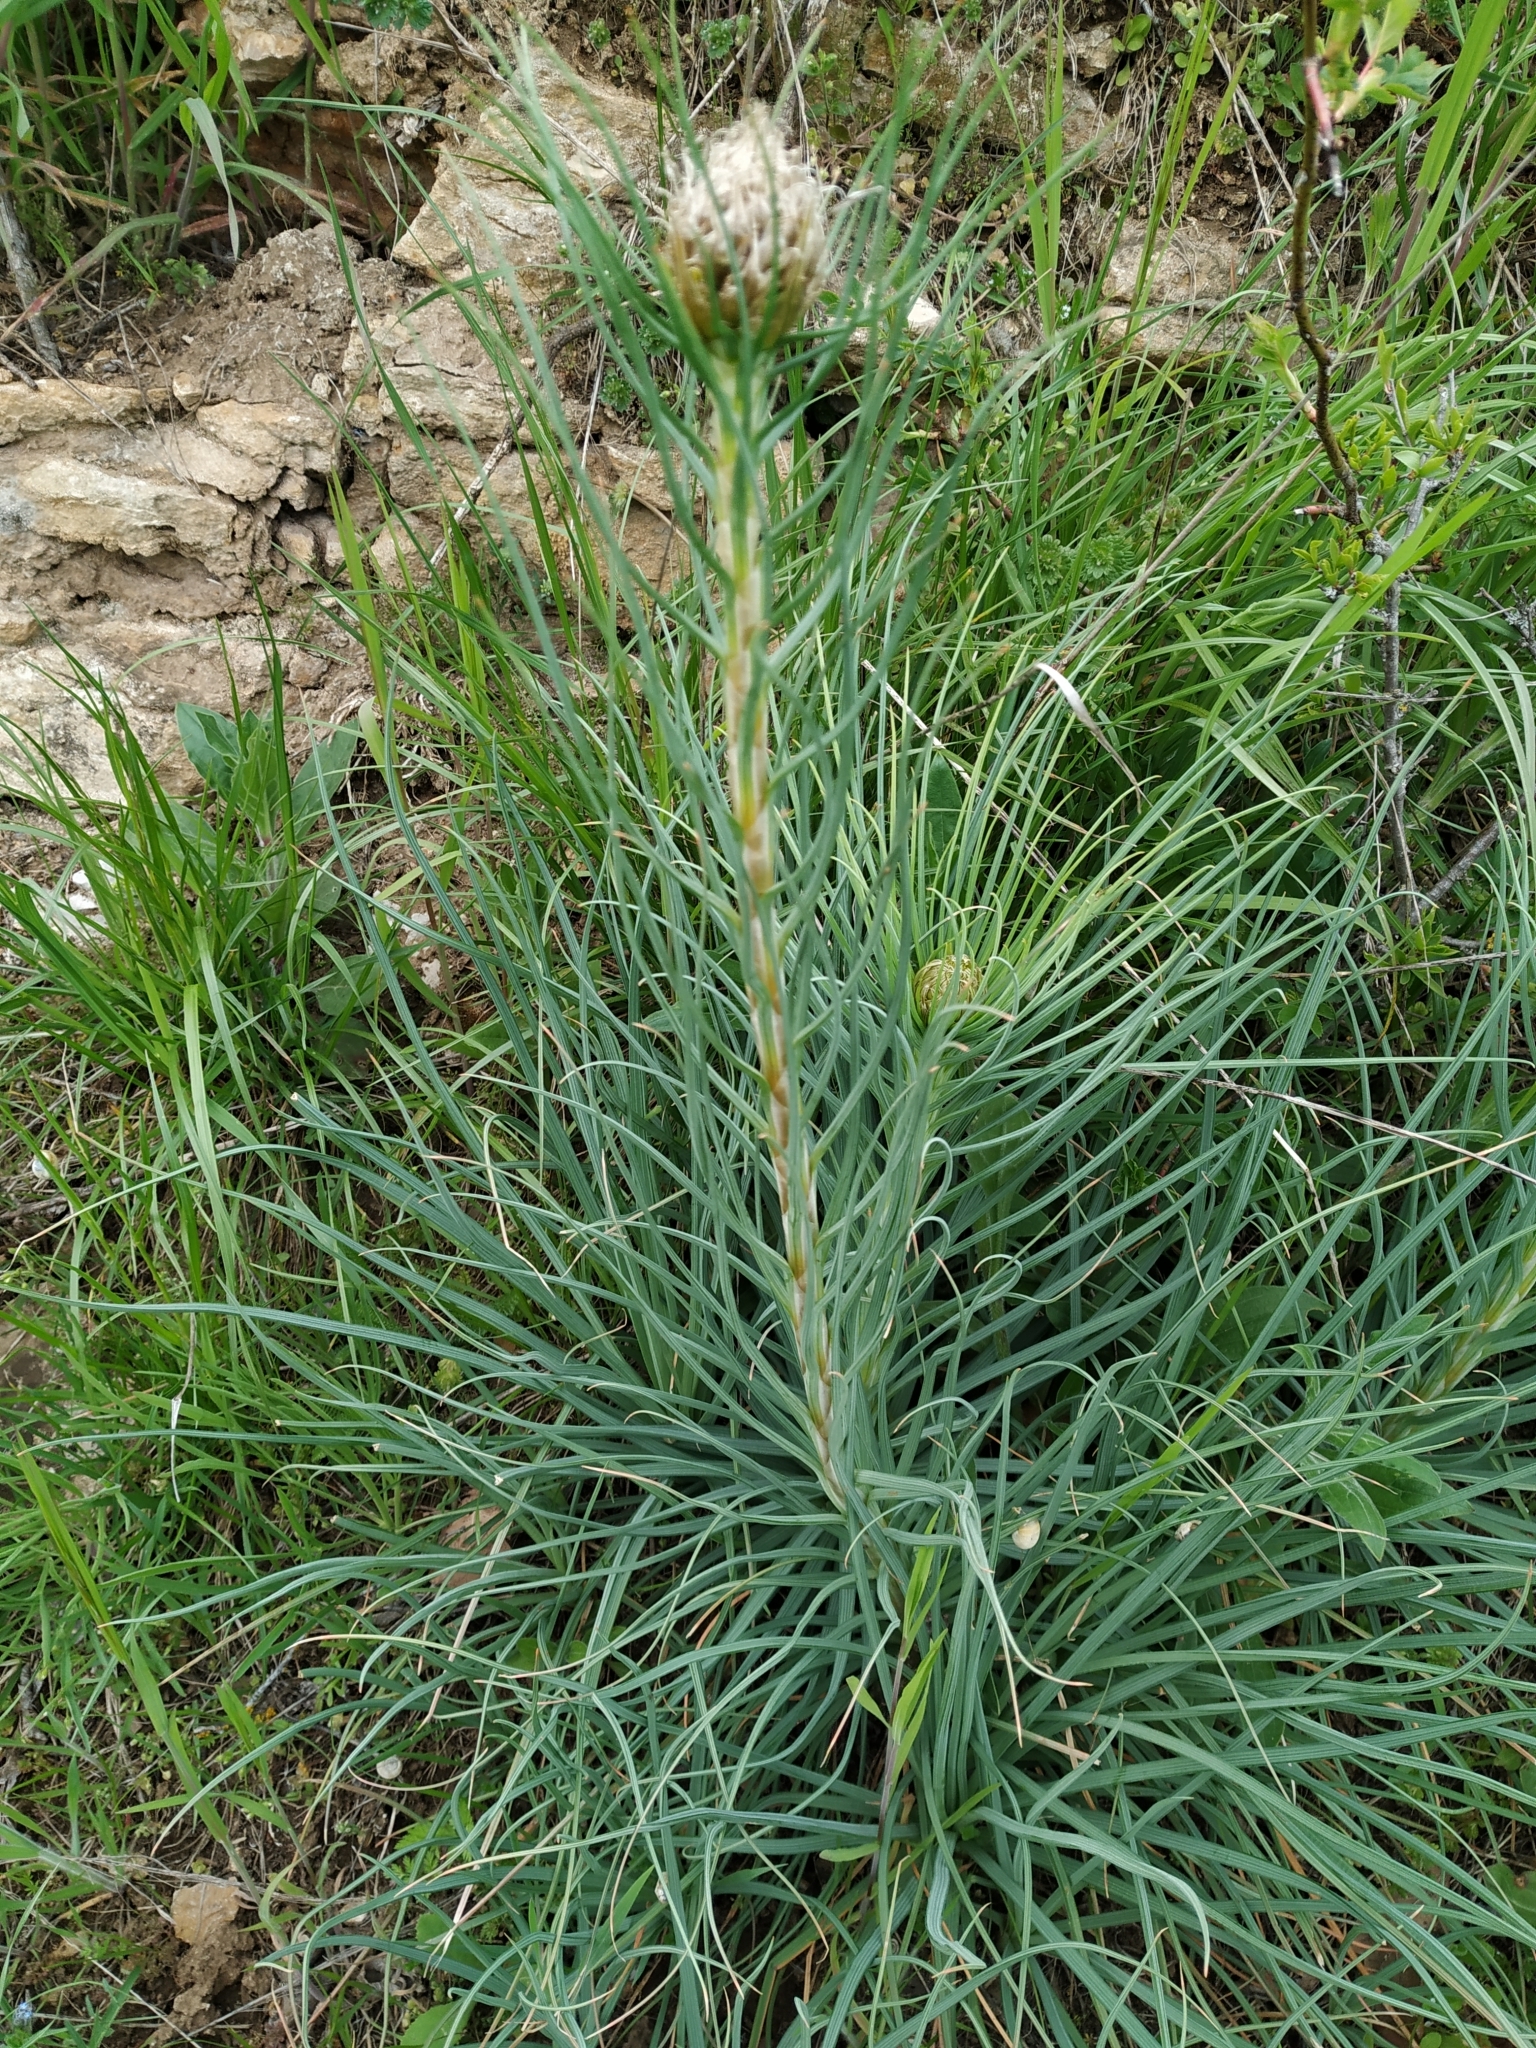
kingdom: Plantae
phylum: Tracheophyta
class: Liliopsida
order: Asparagales
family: Asphodelaceae
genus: Asphodeline
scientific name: Asphodeline lutea
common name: Yellow asphodel
